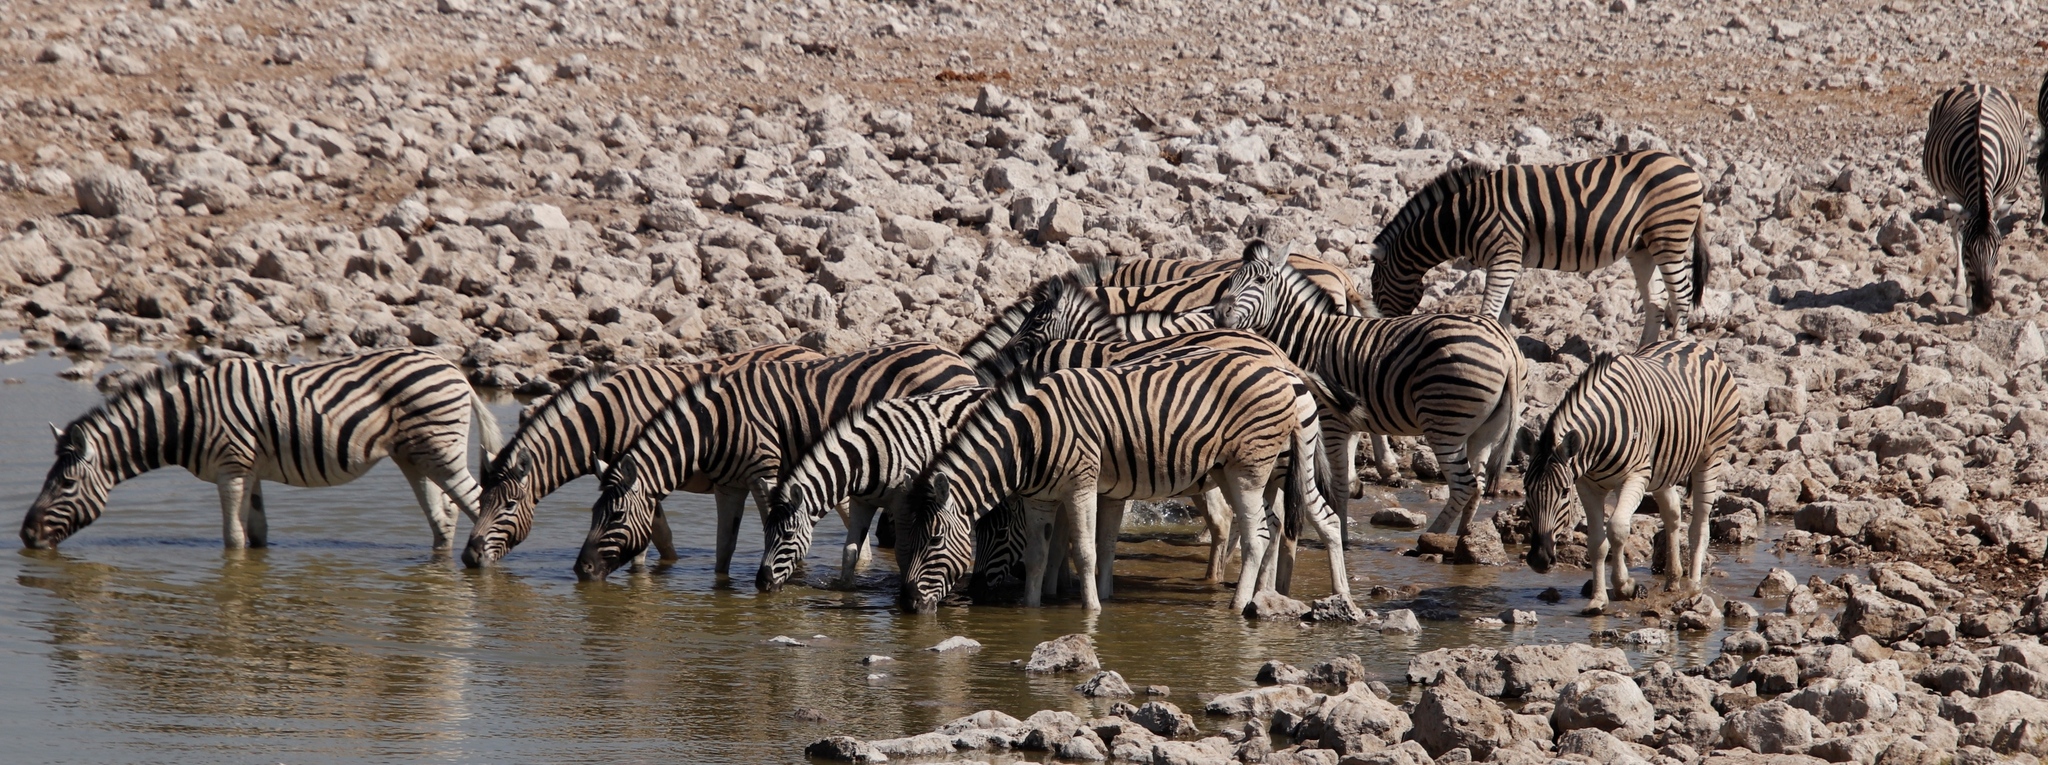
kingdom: Animalia
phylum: Chordata
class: Mammalia
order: Perissodactyla
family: Equidae
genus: Equus
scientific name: Equus quagga
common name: Plains zebra
